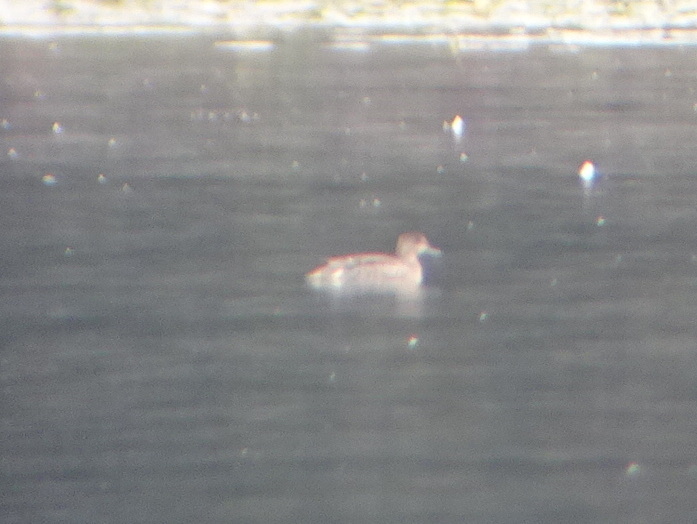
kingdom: Animalia
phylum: Chordata
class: Aves
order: Anseriformes
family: Anatidae
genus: Anas
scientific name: Anas crecca
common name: Eurasian teal
